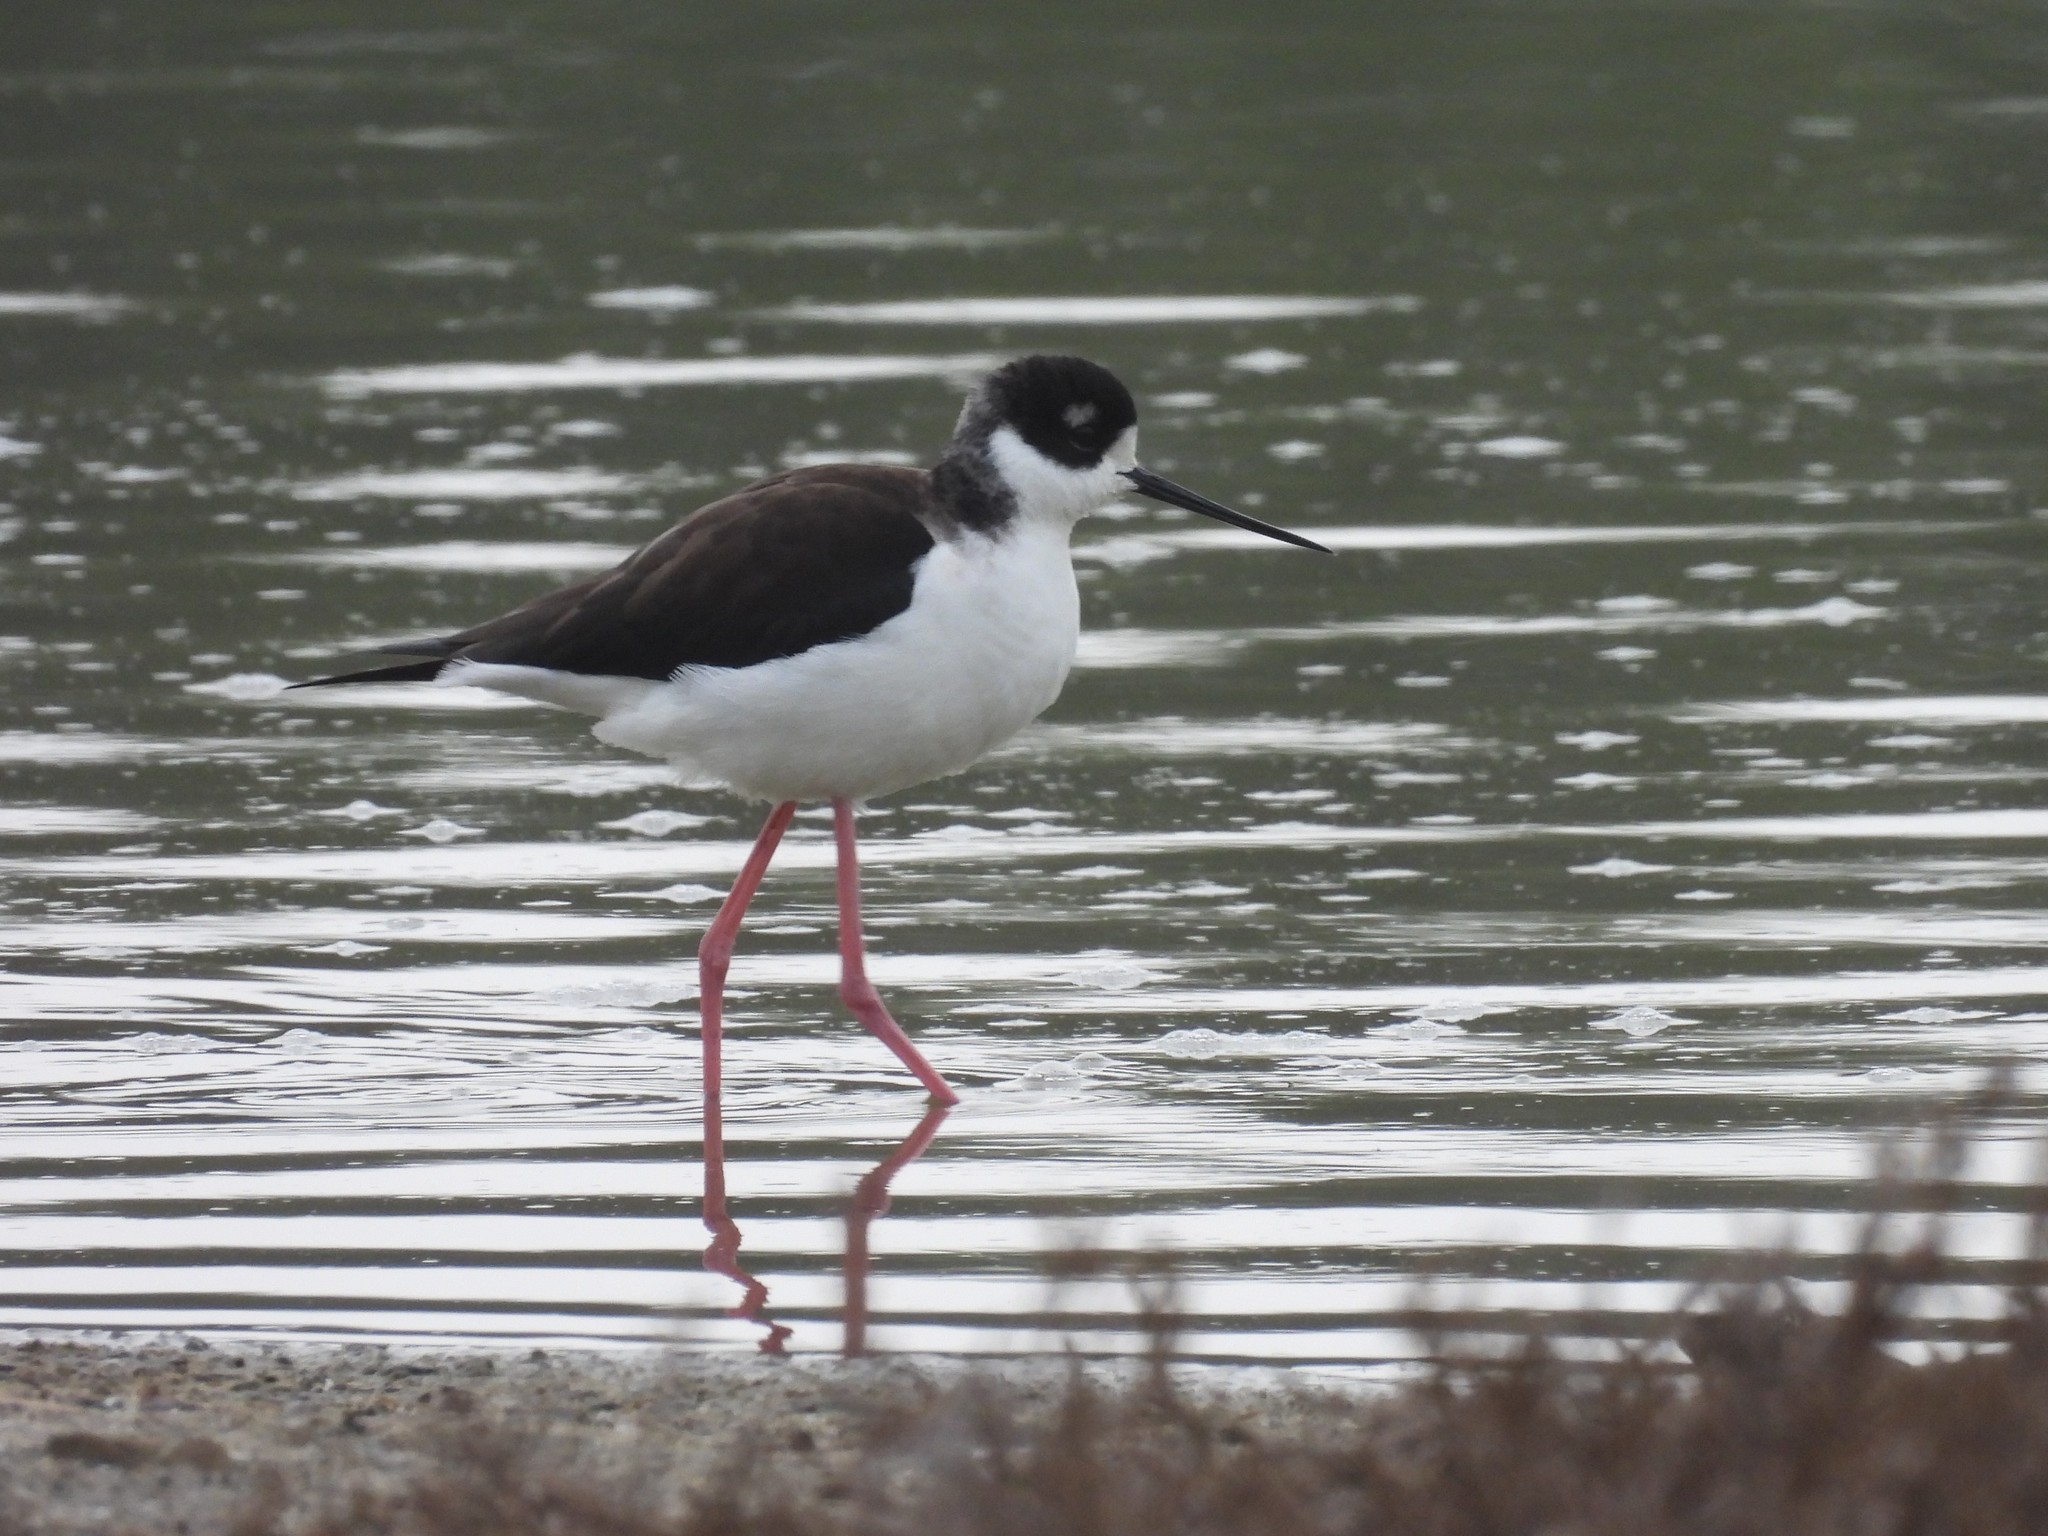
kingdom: Animalia
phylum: Chordata
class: Aves
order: Charadriiformes
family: Recurvirostridae
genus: Himantopus
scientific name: Himantopus mexicanus
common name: Black-necked stilt
